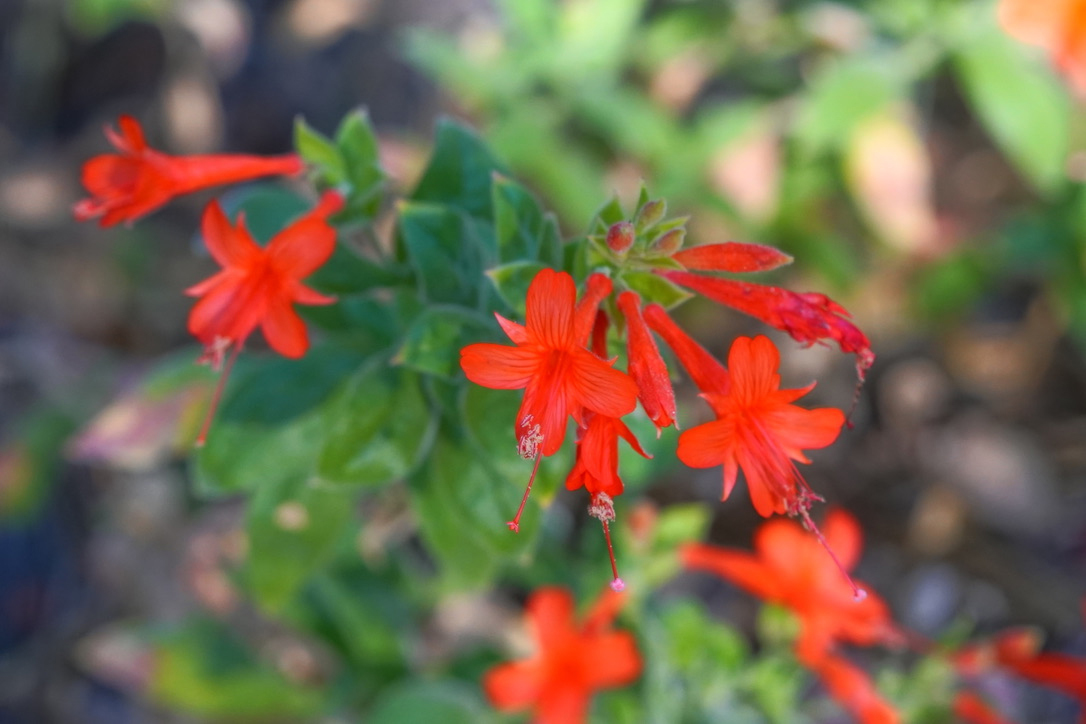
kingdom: Plantae
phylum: Tracheophyta
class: Magnoliopsida
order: Myrtales
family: Onagraceae
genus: Epilobium
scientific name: Epilobium canum
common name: California-fuchsia
